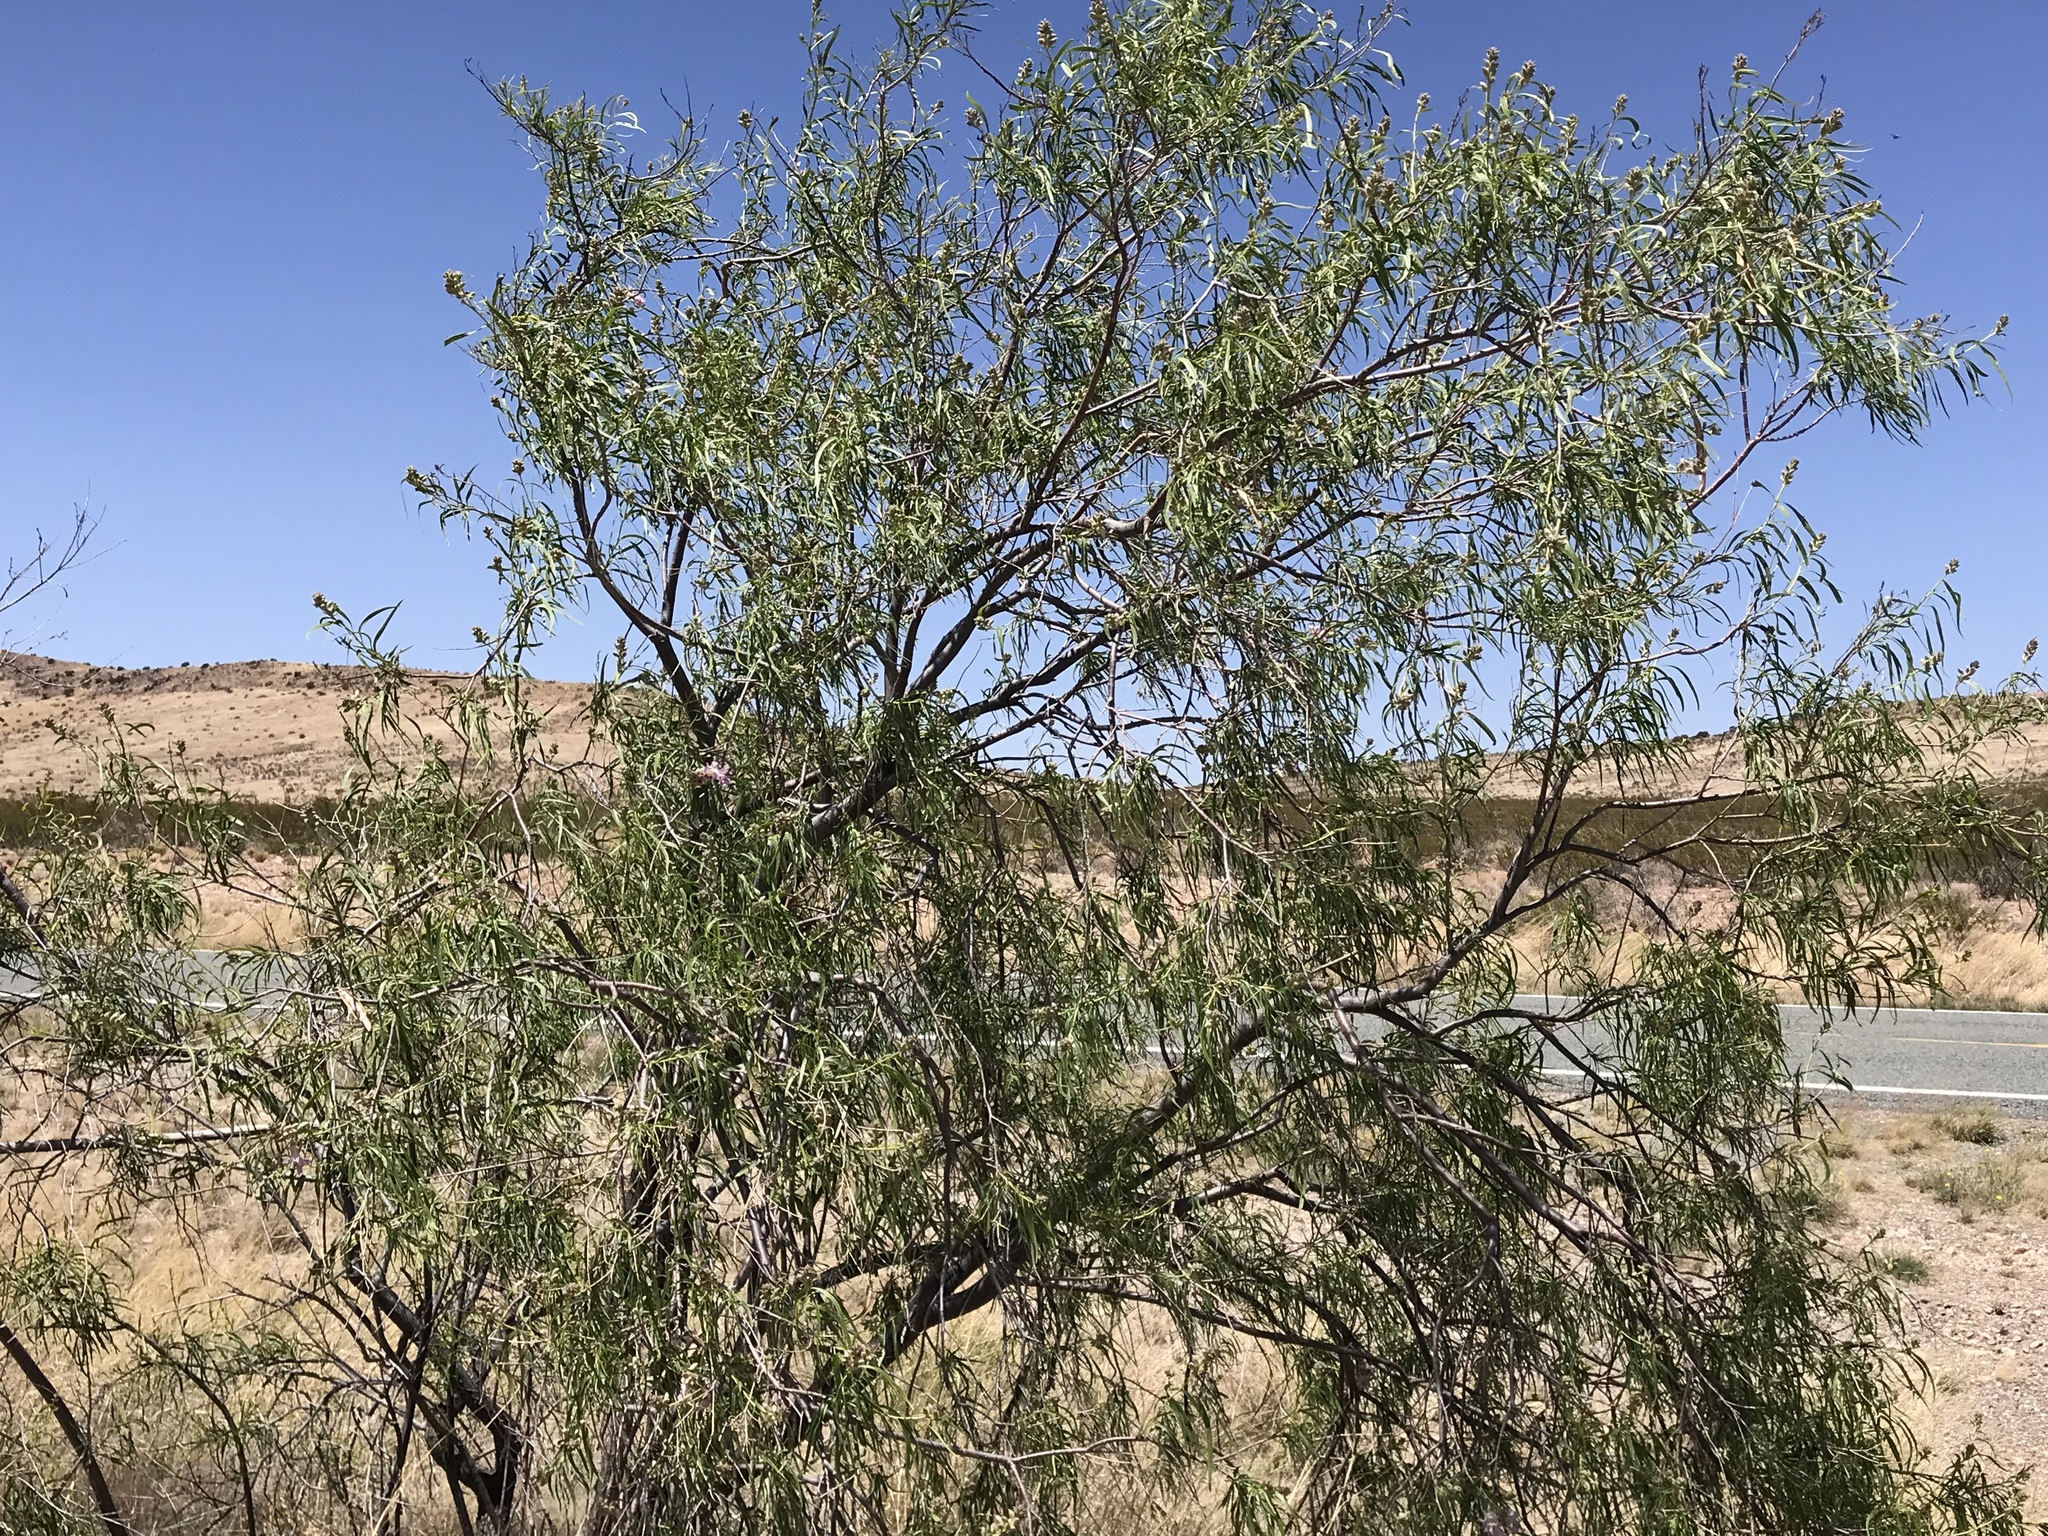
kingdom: Plantae
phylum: Tracheophyta
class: Magnoliopsida
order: Lamiales
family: Bignoniaceae
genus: Chilopsis
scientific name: Chilopsis linearis
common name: Desert-willow
